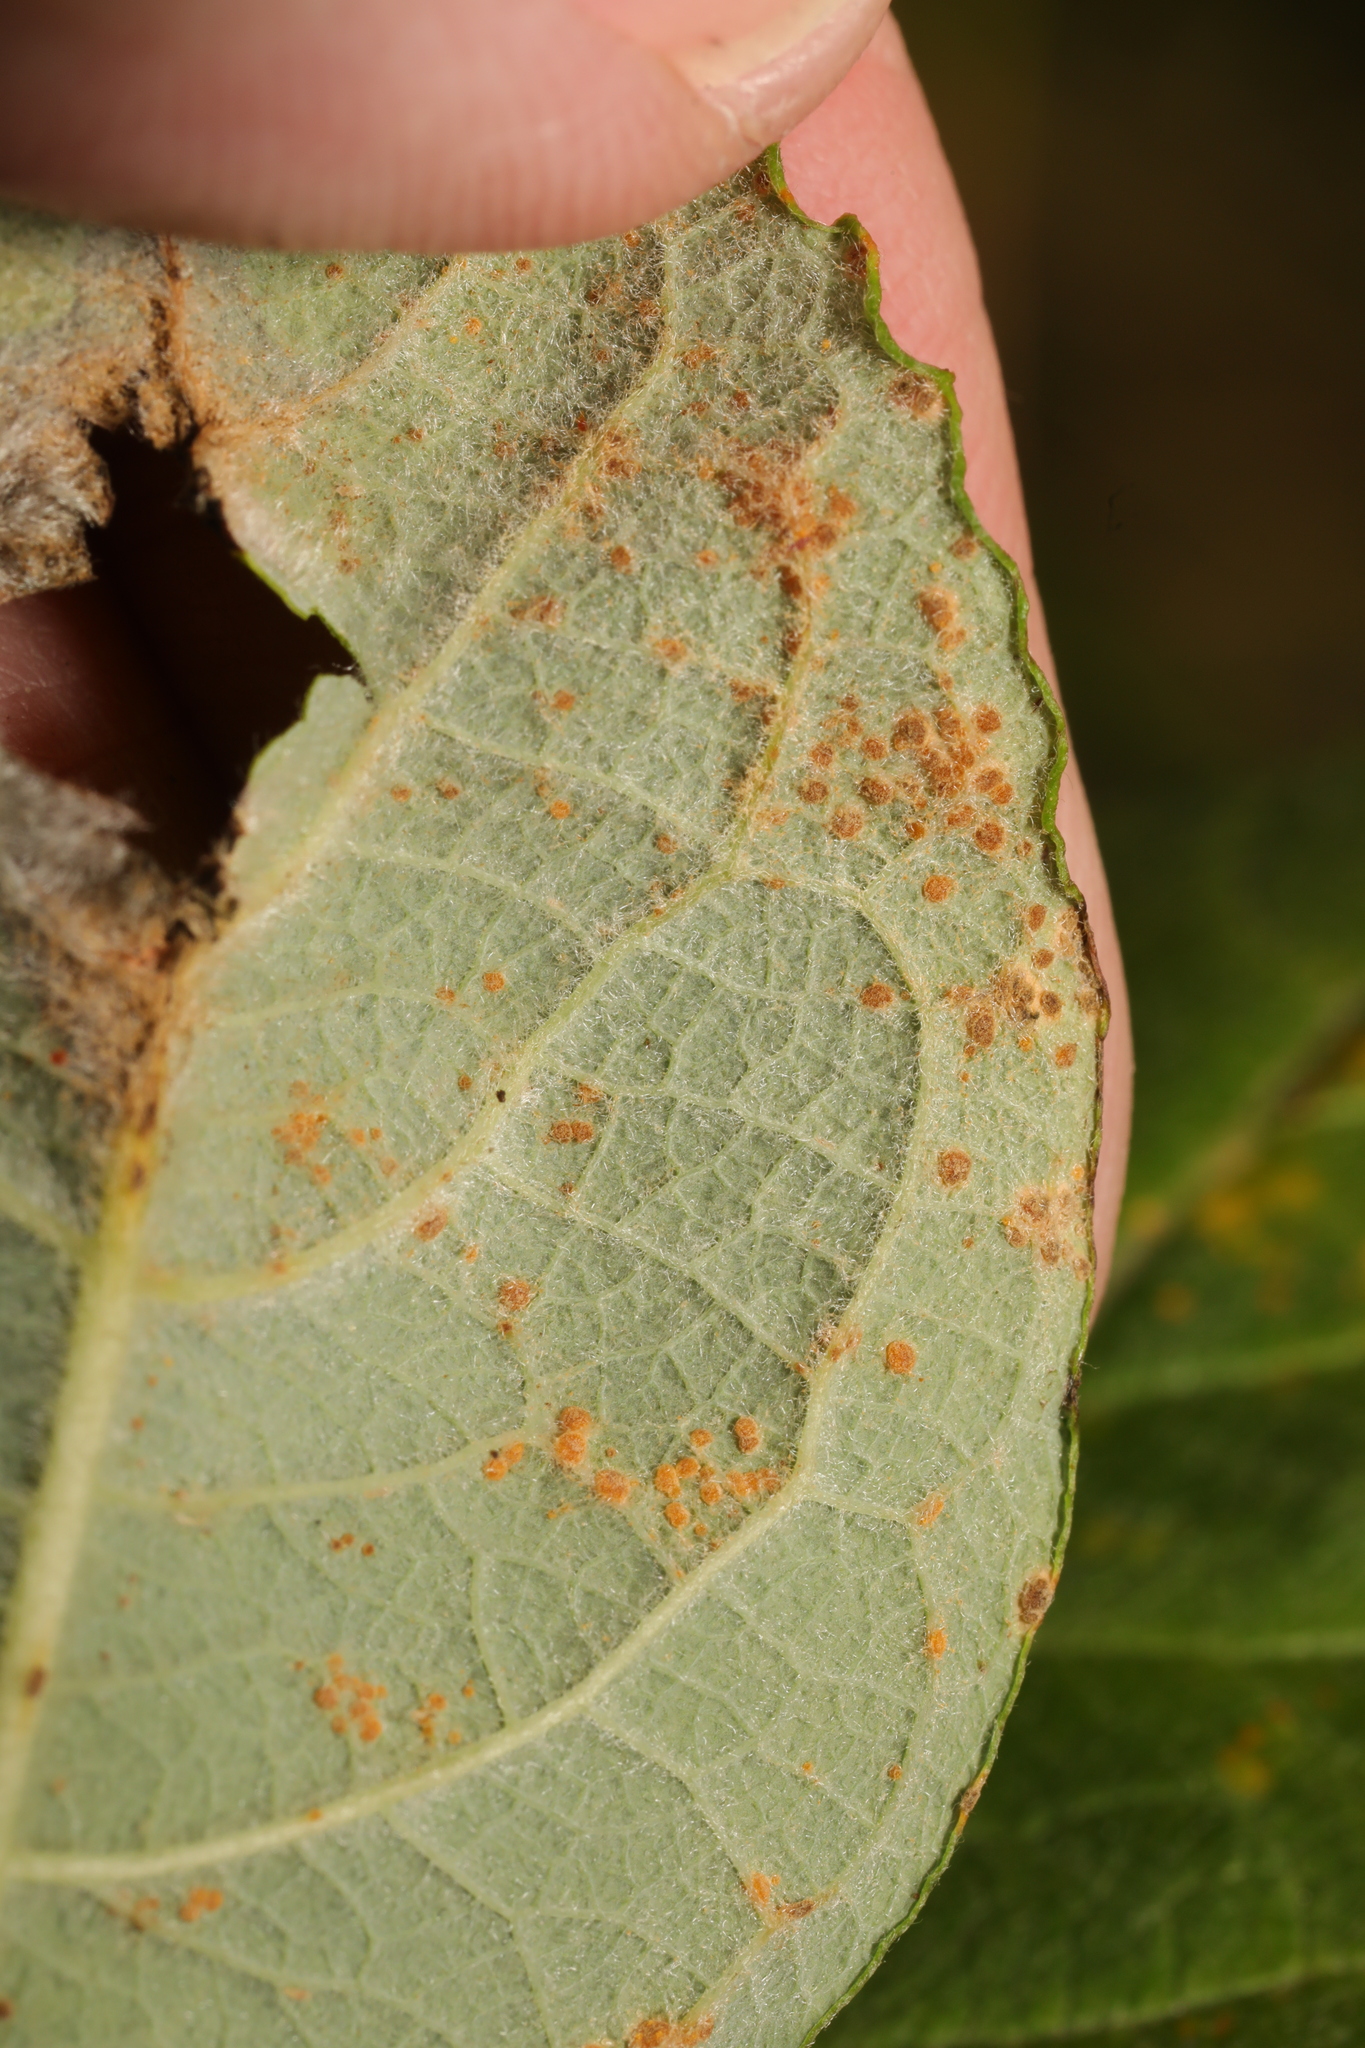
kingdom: Fungi
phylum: Basidiomycota
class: Pucciniomycetes
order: Pucciniales
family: Melampsoraceae
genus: Melampsora
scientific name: Melampsora
